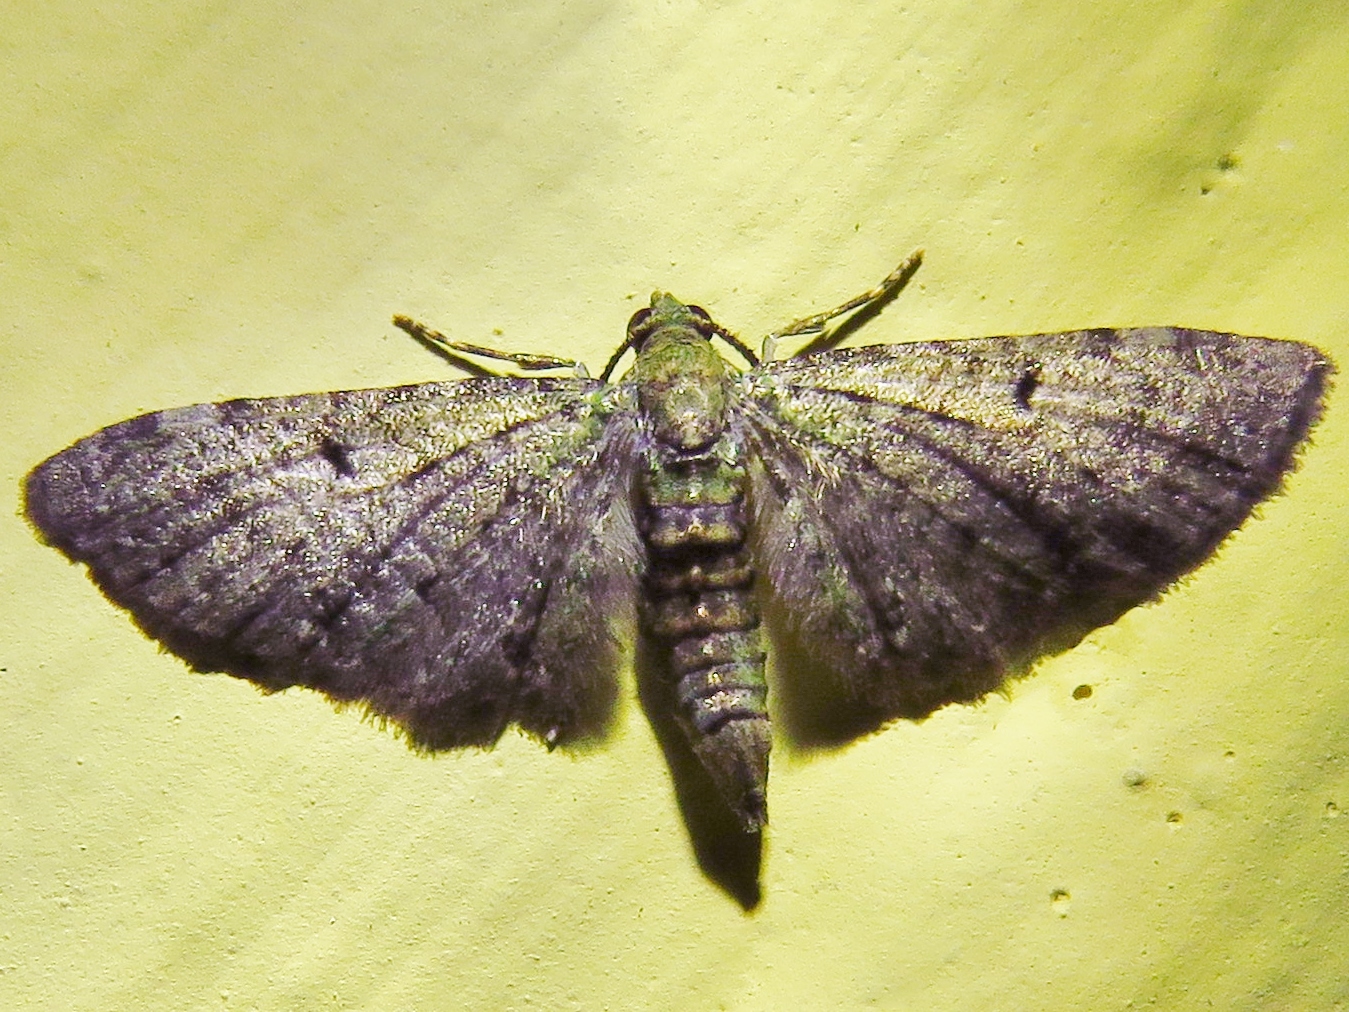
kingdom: Animalia
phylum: Arthropoda
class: Insecta
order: Lepidoptera
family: Geometridae
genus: Eupithecia
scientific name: Eupithecia miserulata
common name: Common eupithecia
